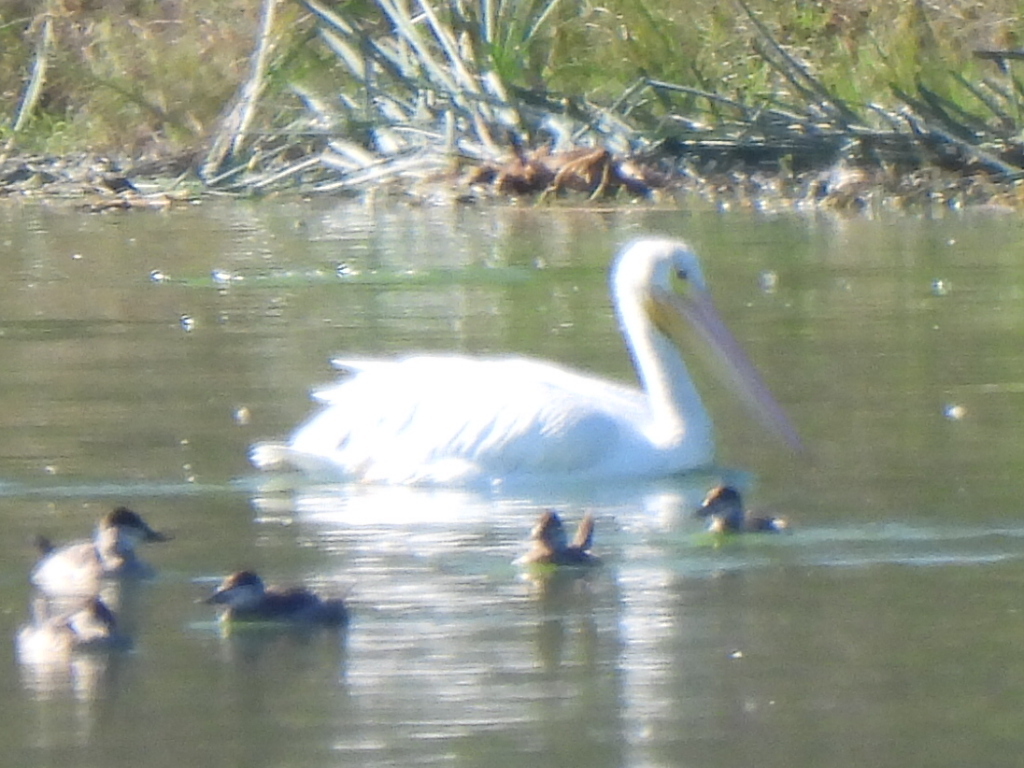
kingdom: Animalia
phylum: Chordata
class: Aves
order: Pelecaniformes
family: Pelecanidae
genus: Pelecanus
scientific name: Pelecanus erythrorhynchos
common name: American white pelican
